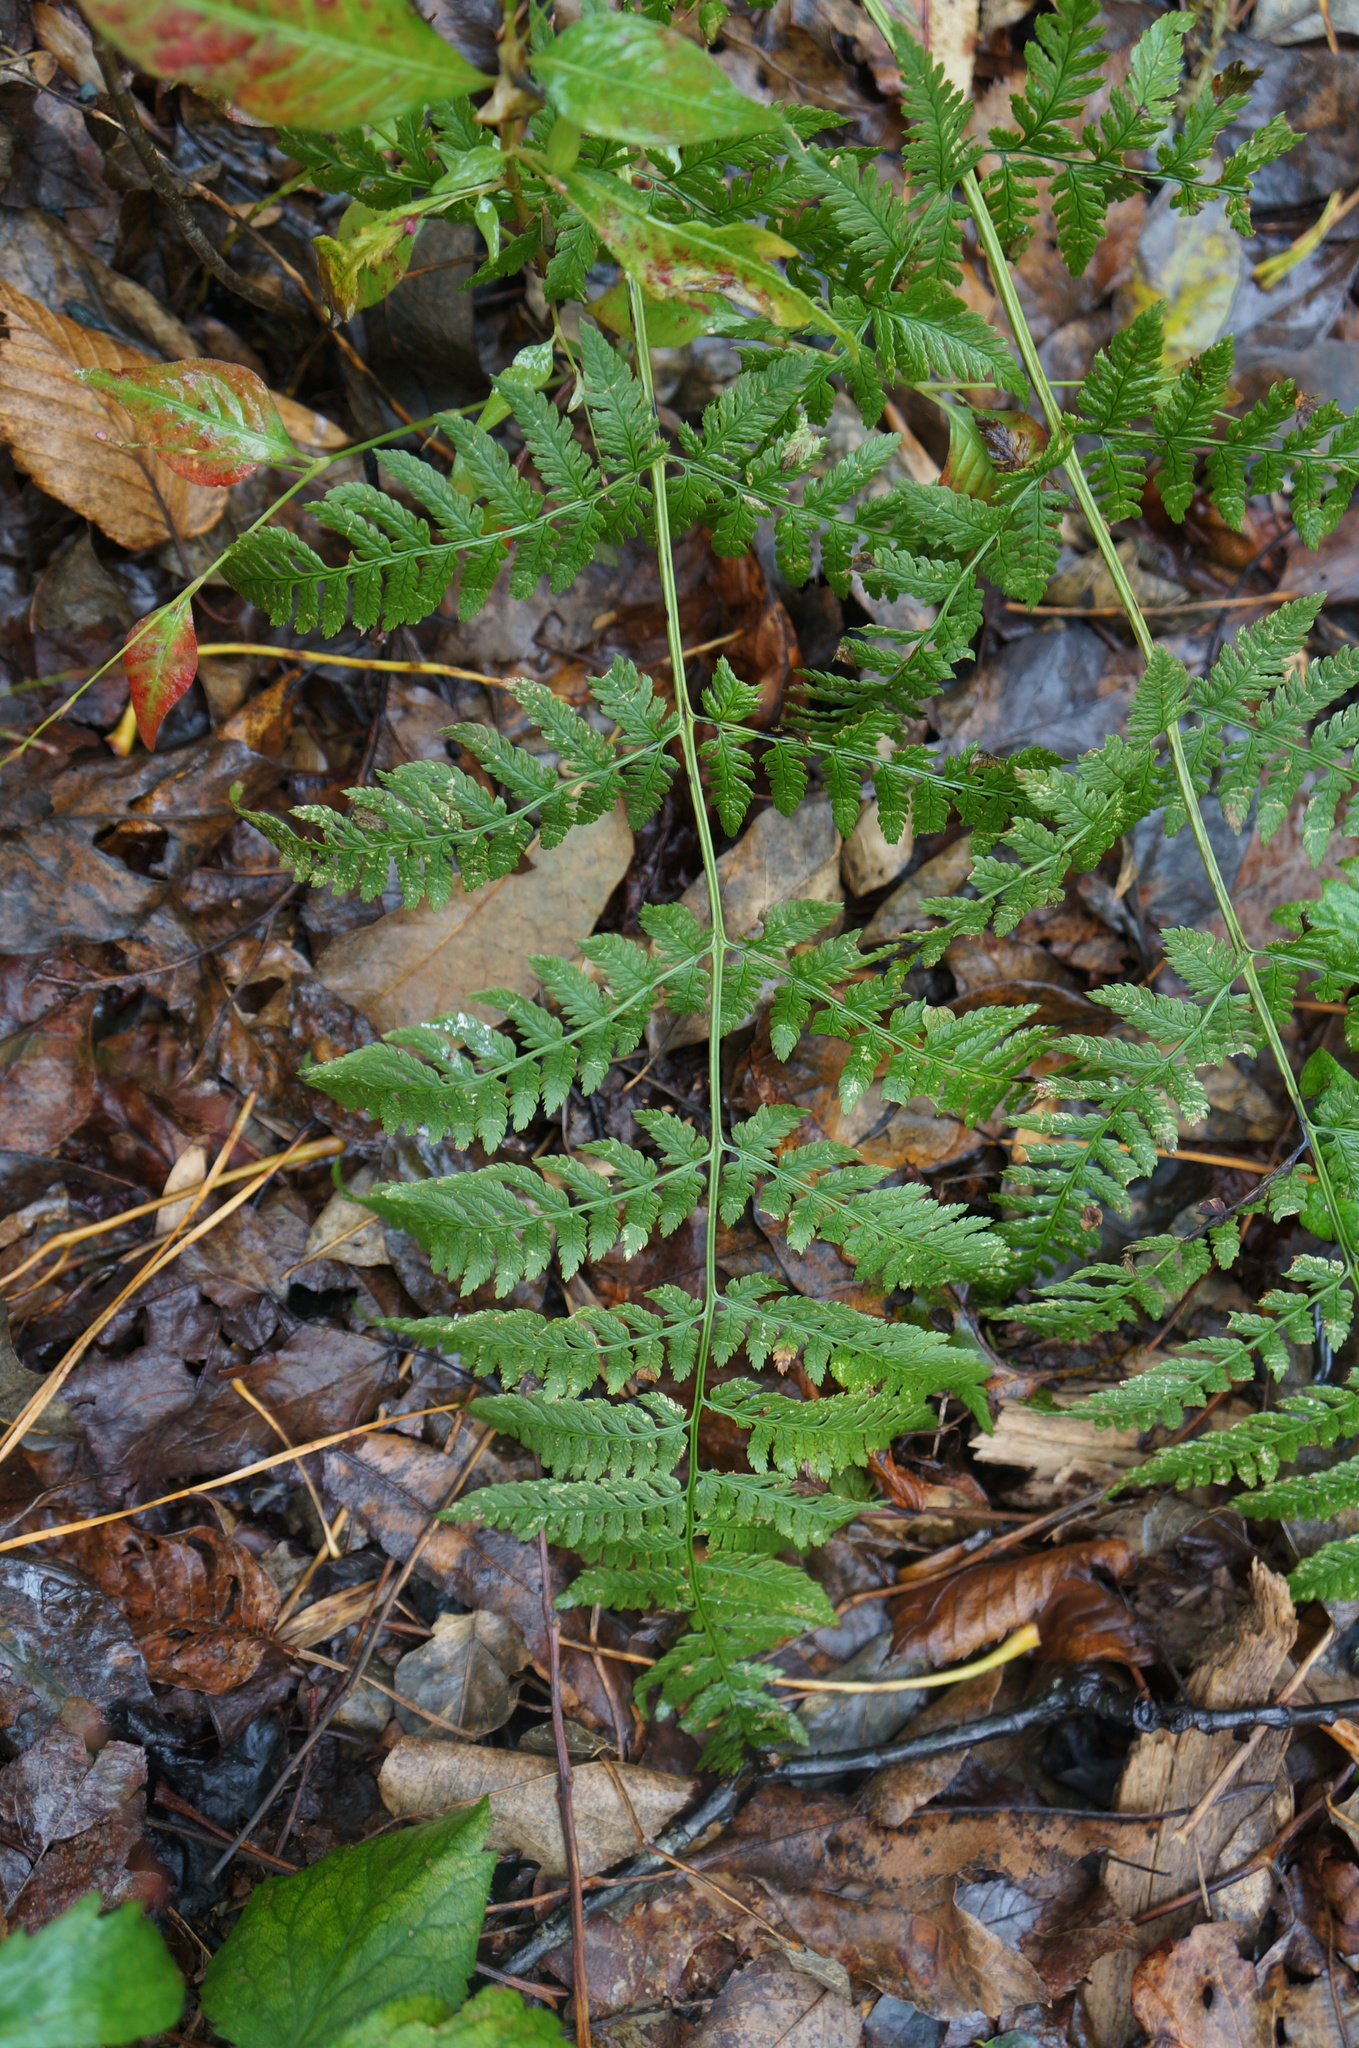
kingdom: Plantae
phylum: Tracheophyta
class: Polypodiopsida
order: Polypodiales
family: Dryopteridaceae
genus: Dryopteris
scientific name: Dryopteris carthusiana
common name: Narrow buckler-fern
